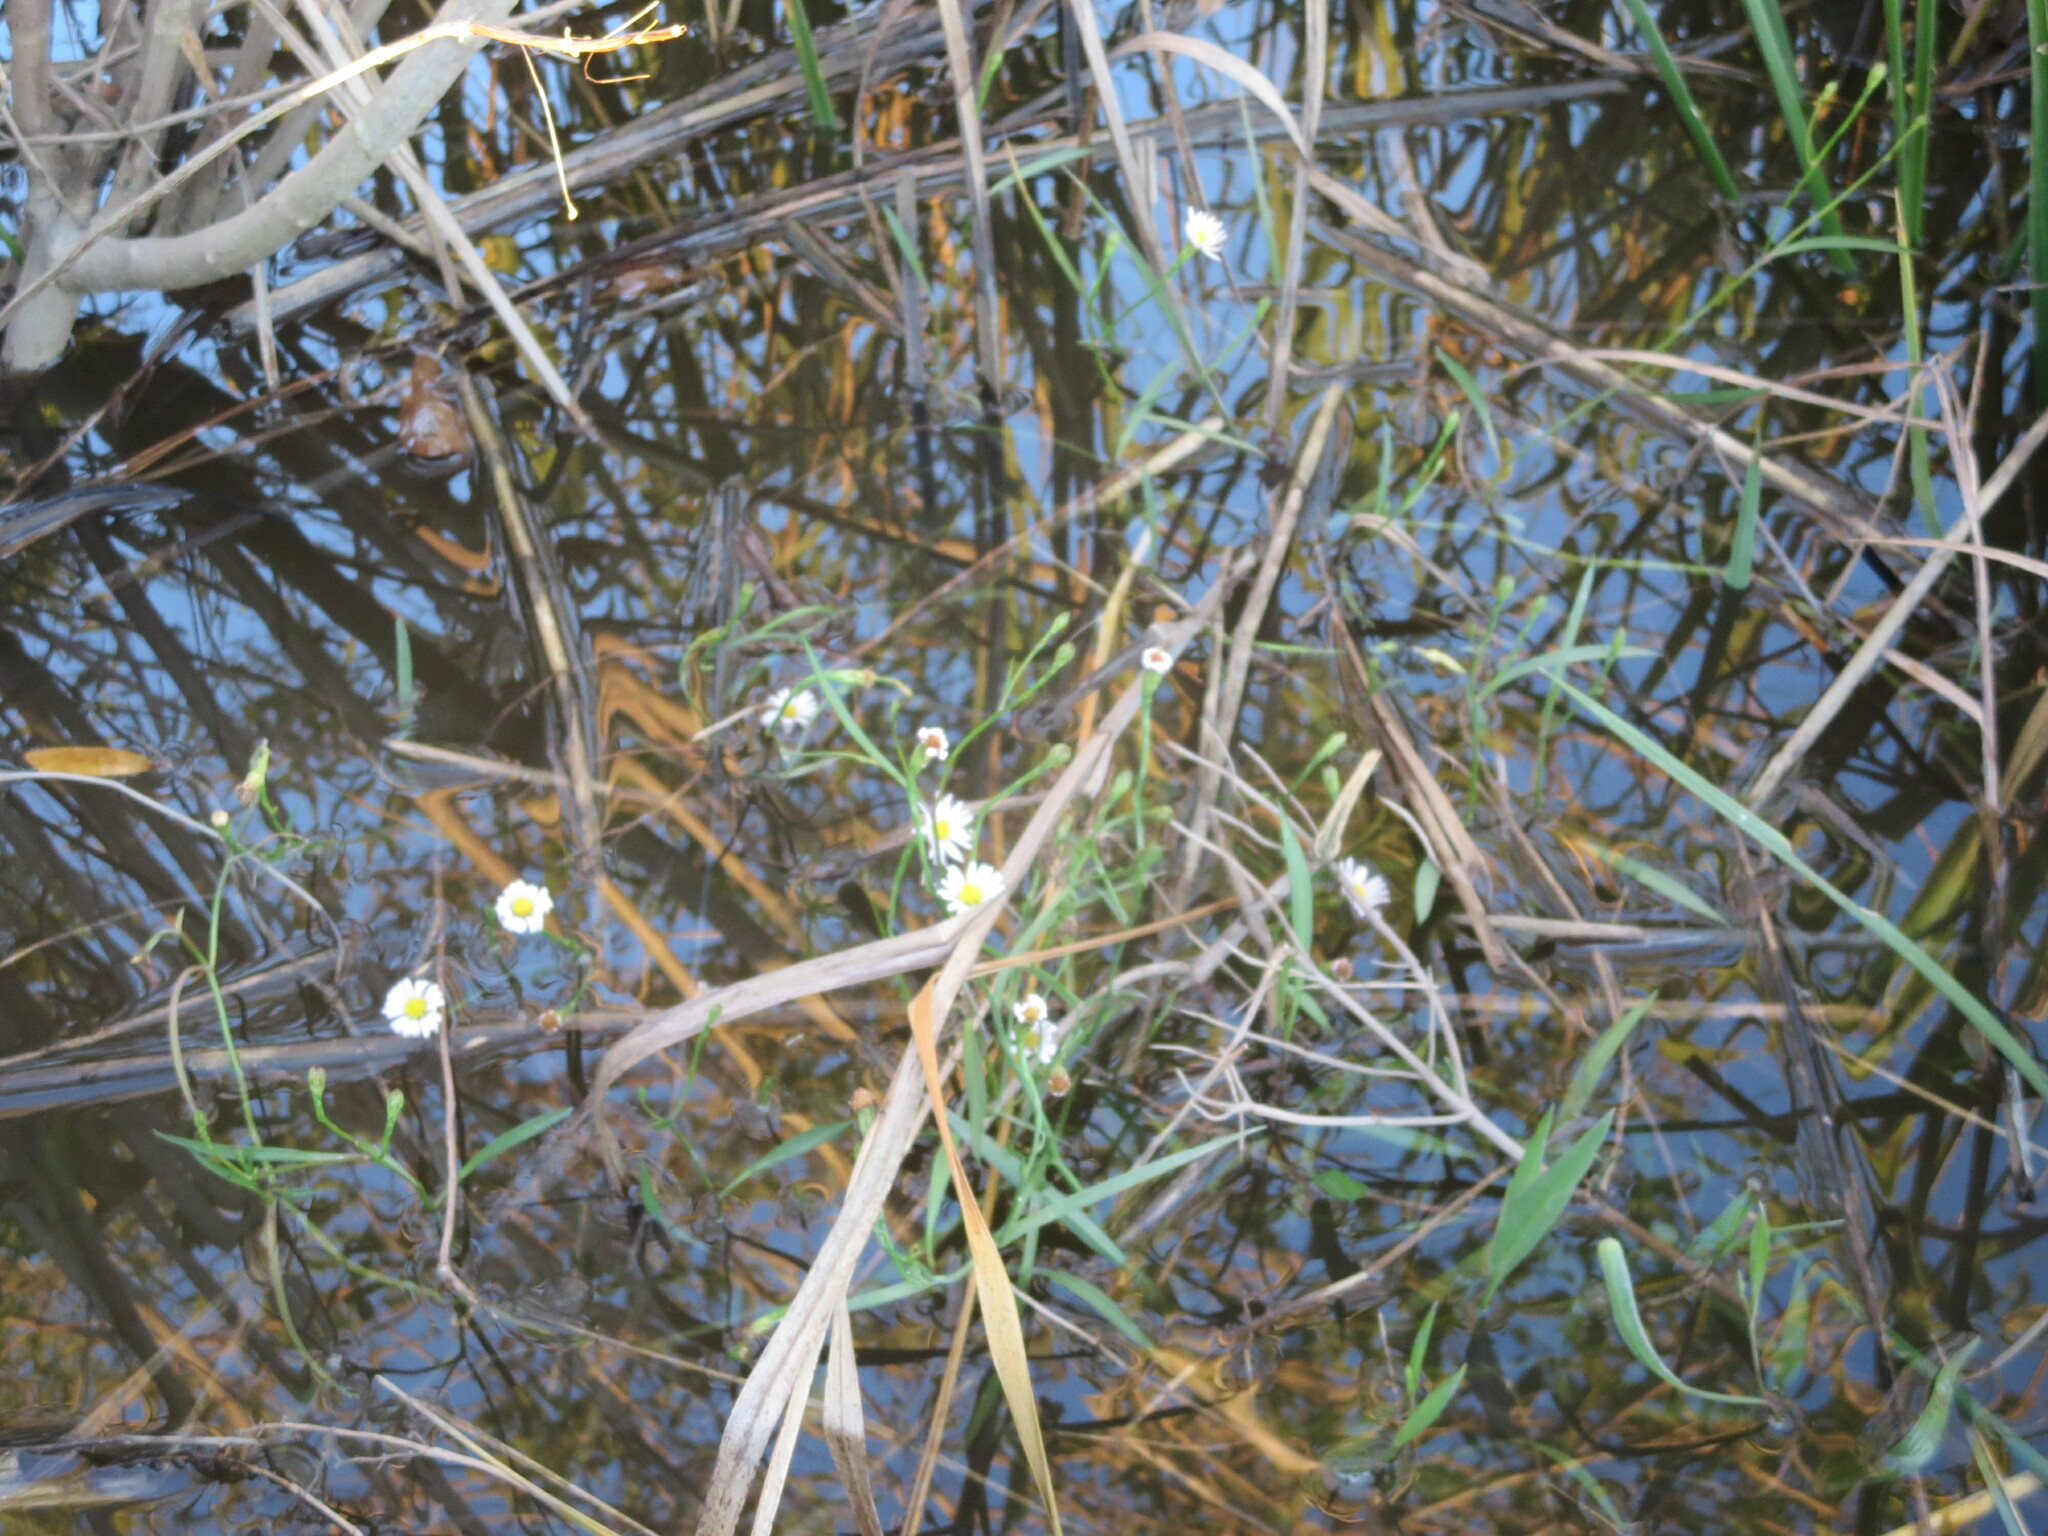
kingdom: Plantae
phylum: Tracheophyta
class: Magnoliopsida
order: Asterales
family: Asteraceae
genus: Symphyotrichum
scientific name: Symphyotrichum tenuifolium
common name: Perennial salt-marsh aster
